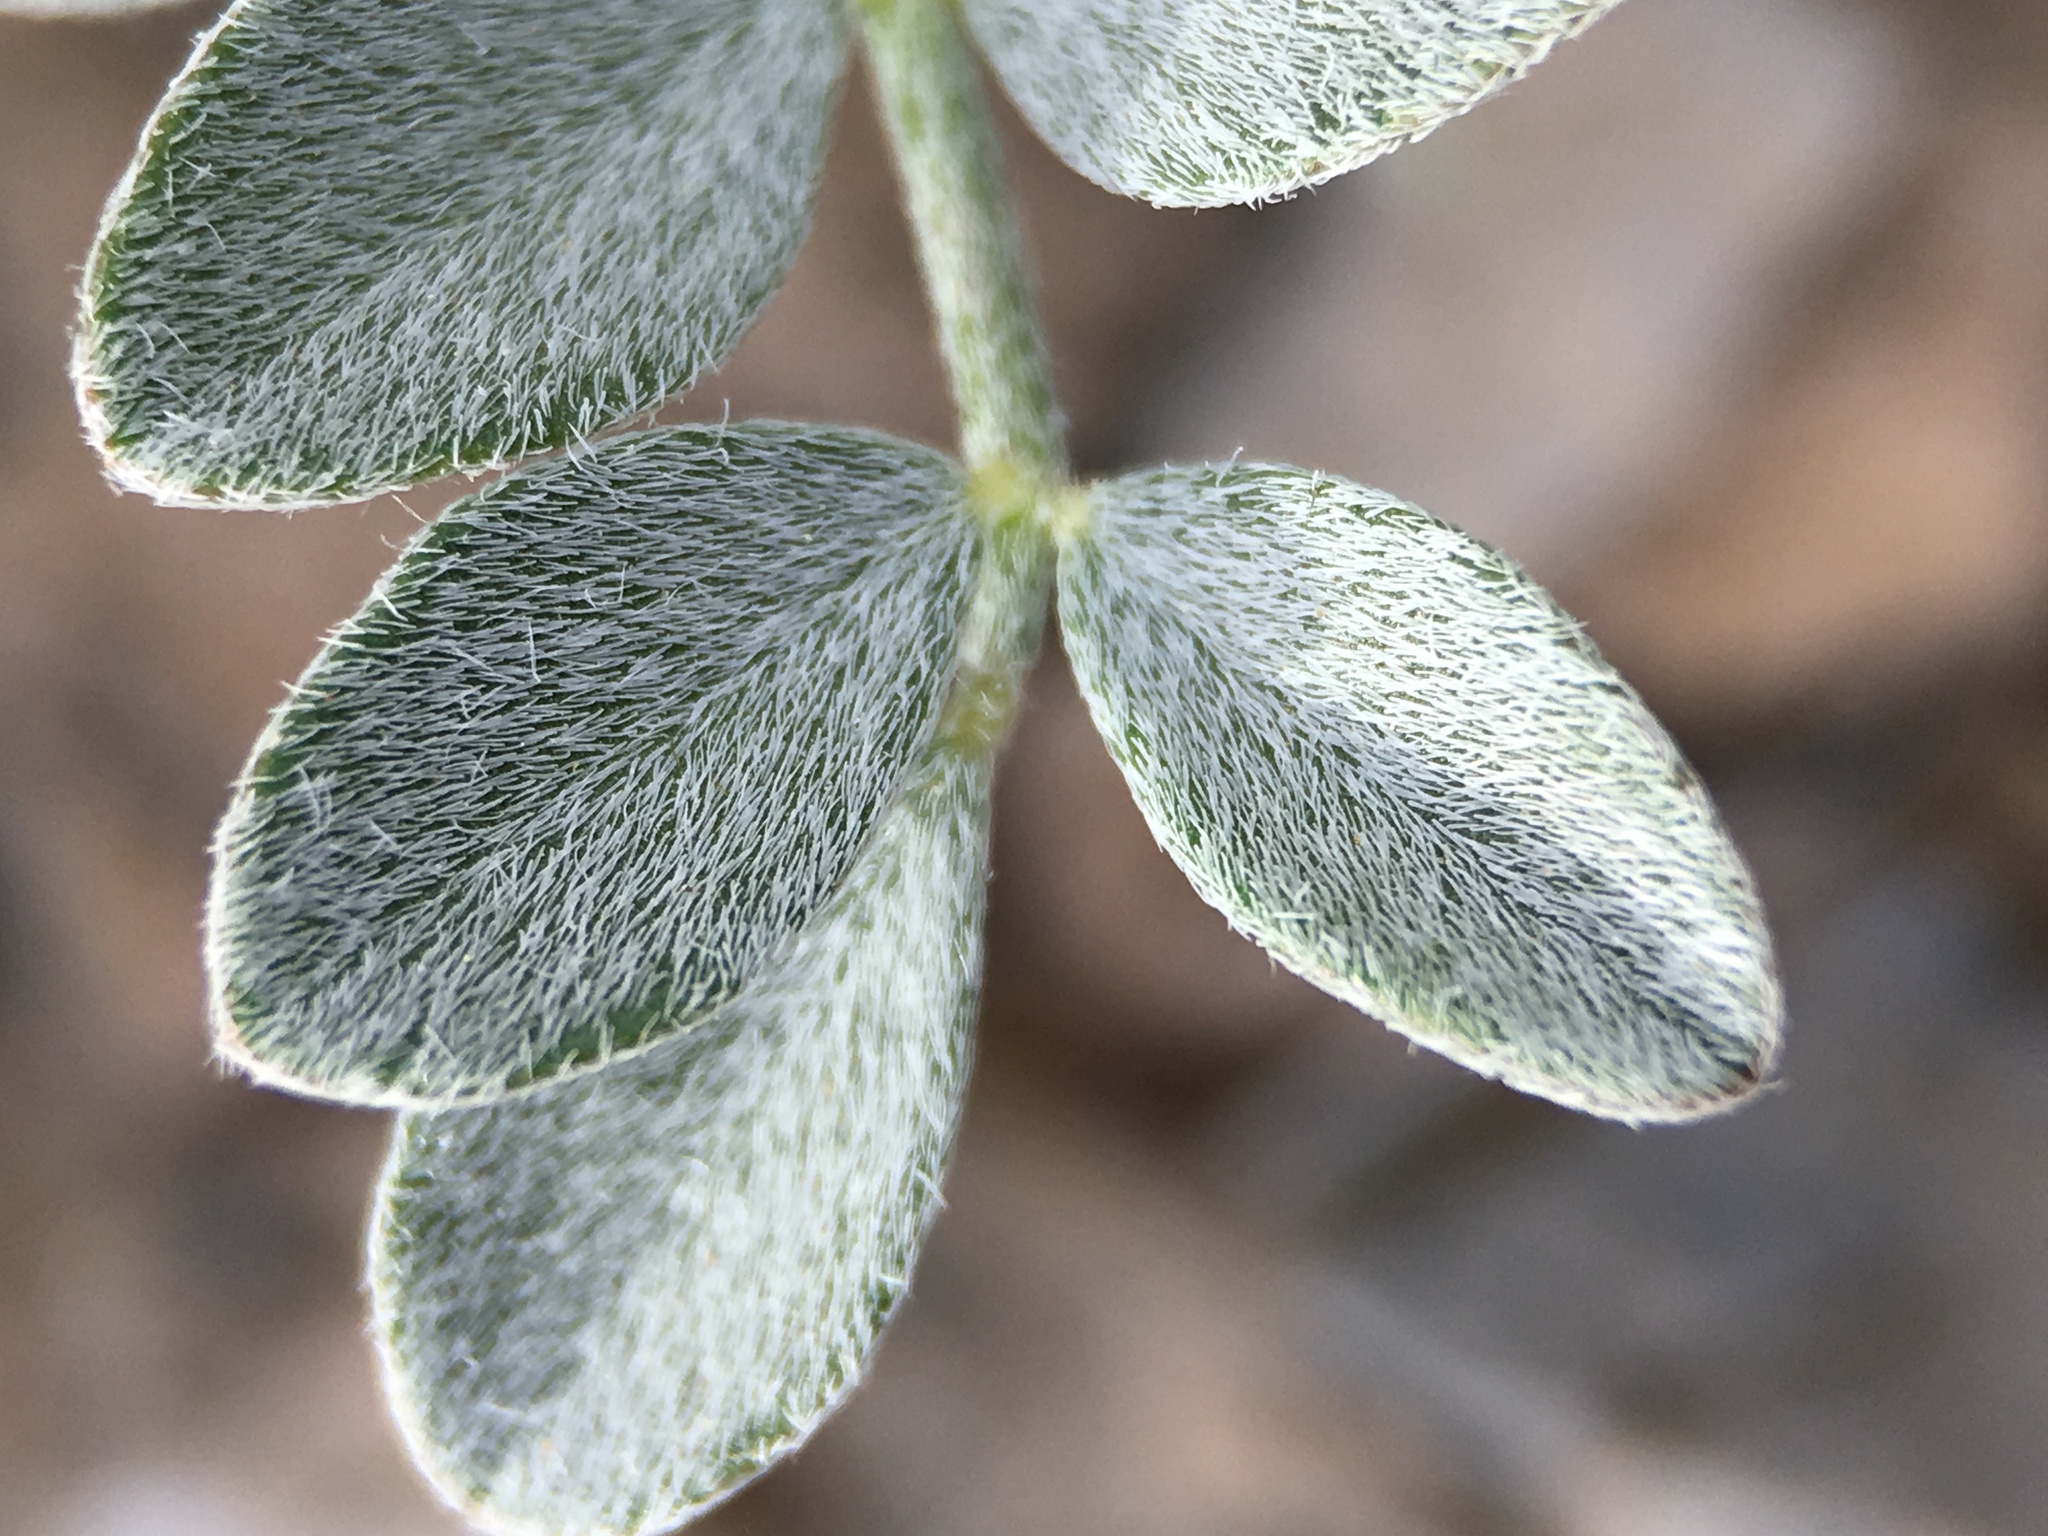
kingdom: Plantae
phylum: Tracheophyta
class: Magnoliopsida
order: Fabales
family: Fabaceae
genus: Astragalus
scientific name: Astragalus mohavensis
